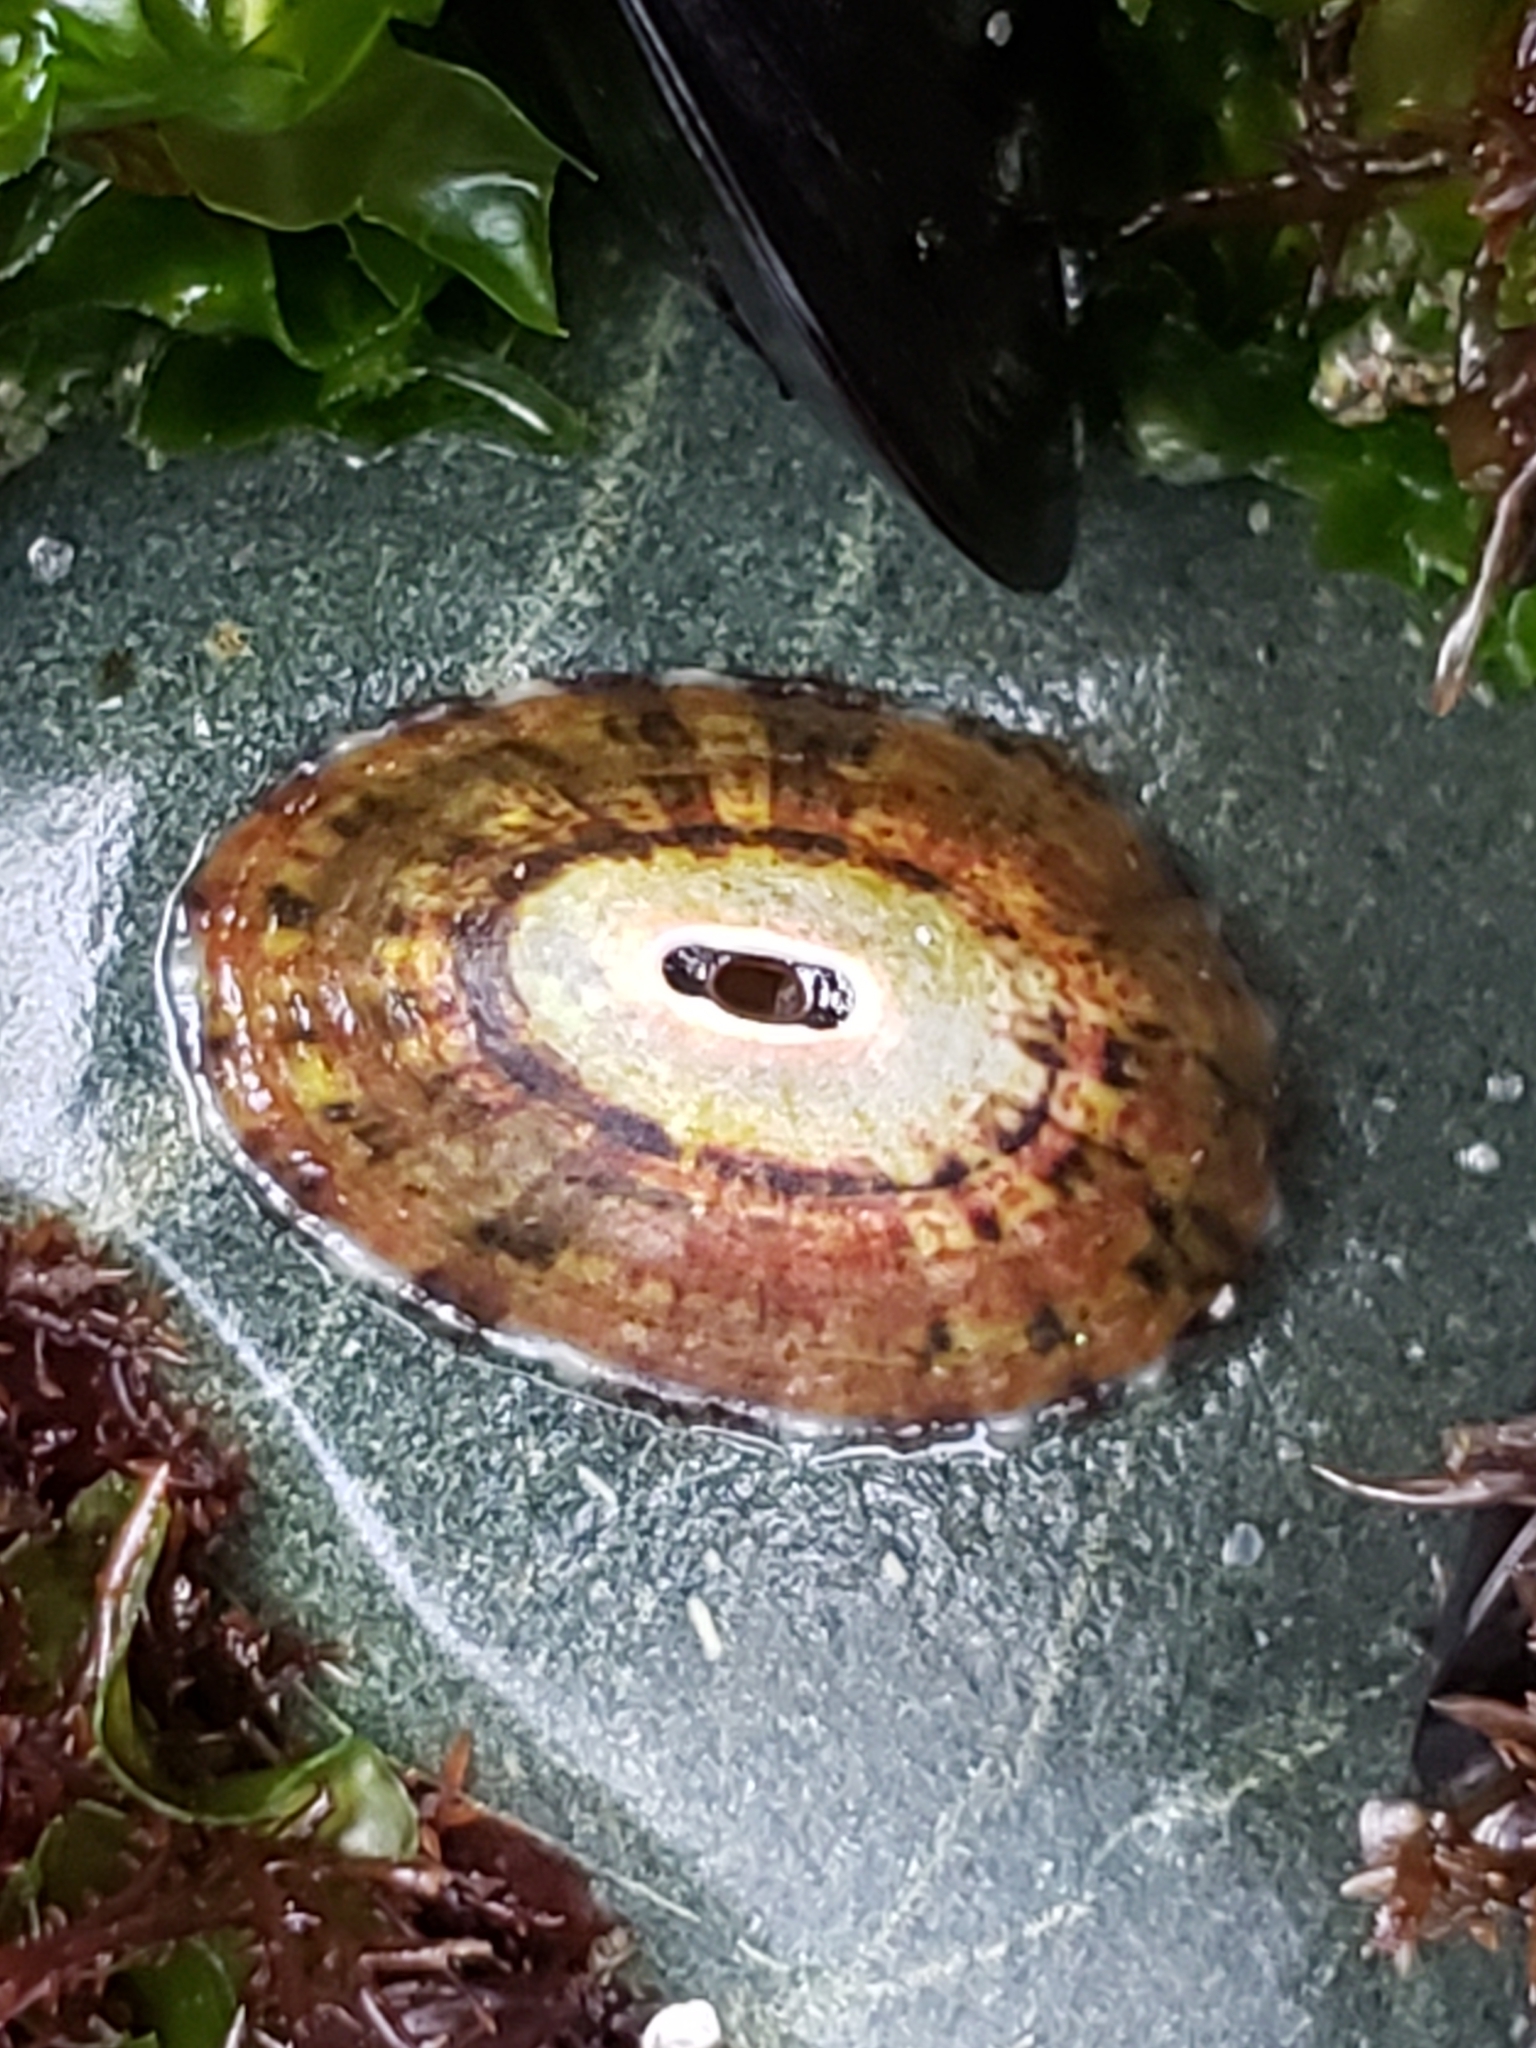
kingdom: Animalia
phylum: Mollusca
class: Gastropoda
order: Lepetellida
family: Fissurellidae
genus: Fissurella
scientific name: Fissurella volcano
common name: Volcano keyhole limpet
